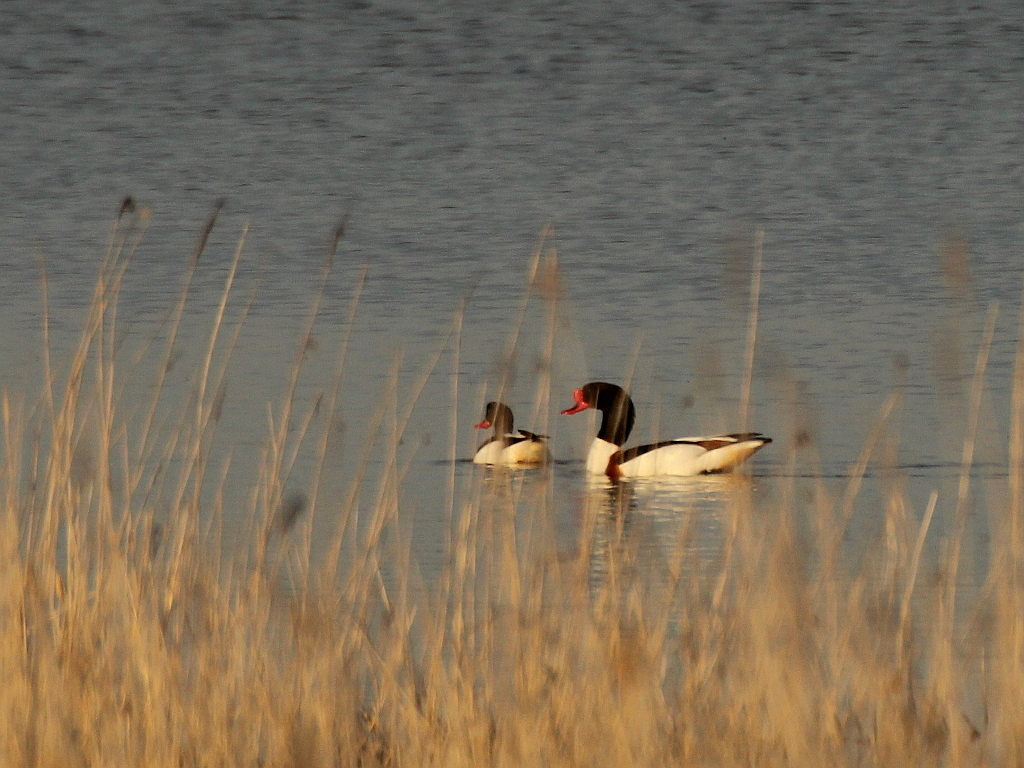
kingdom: Animalia
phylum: Chordata
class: Aves
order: Anseriformes
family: Anatidae
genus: Tadorna
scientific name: Tadorna tadorna
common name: Common shelduck
